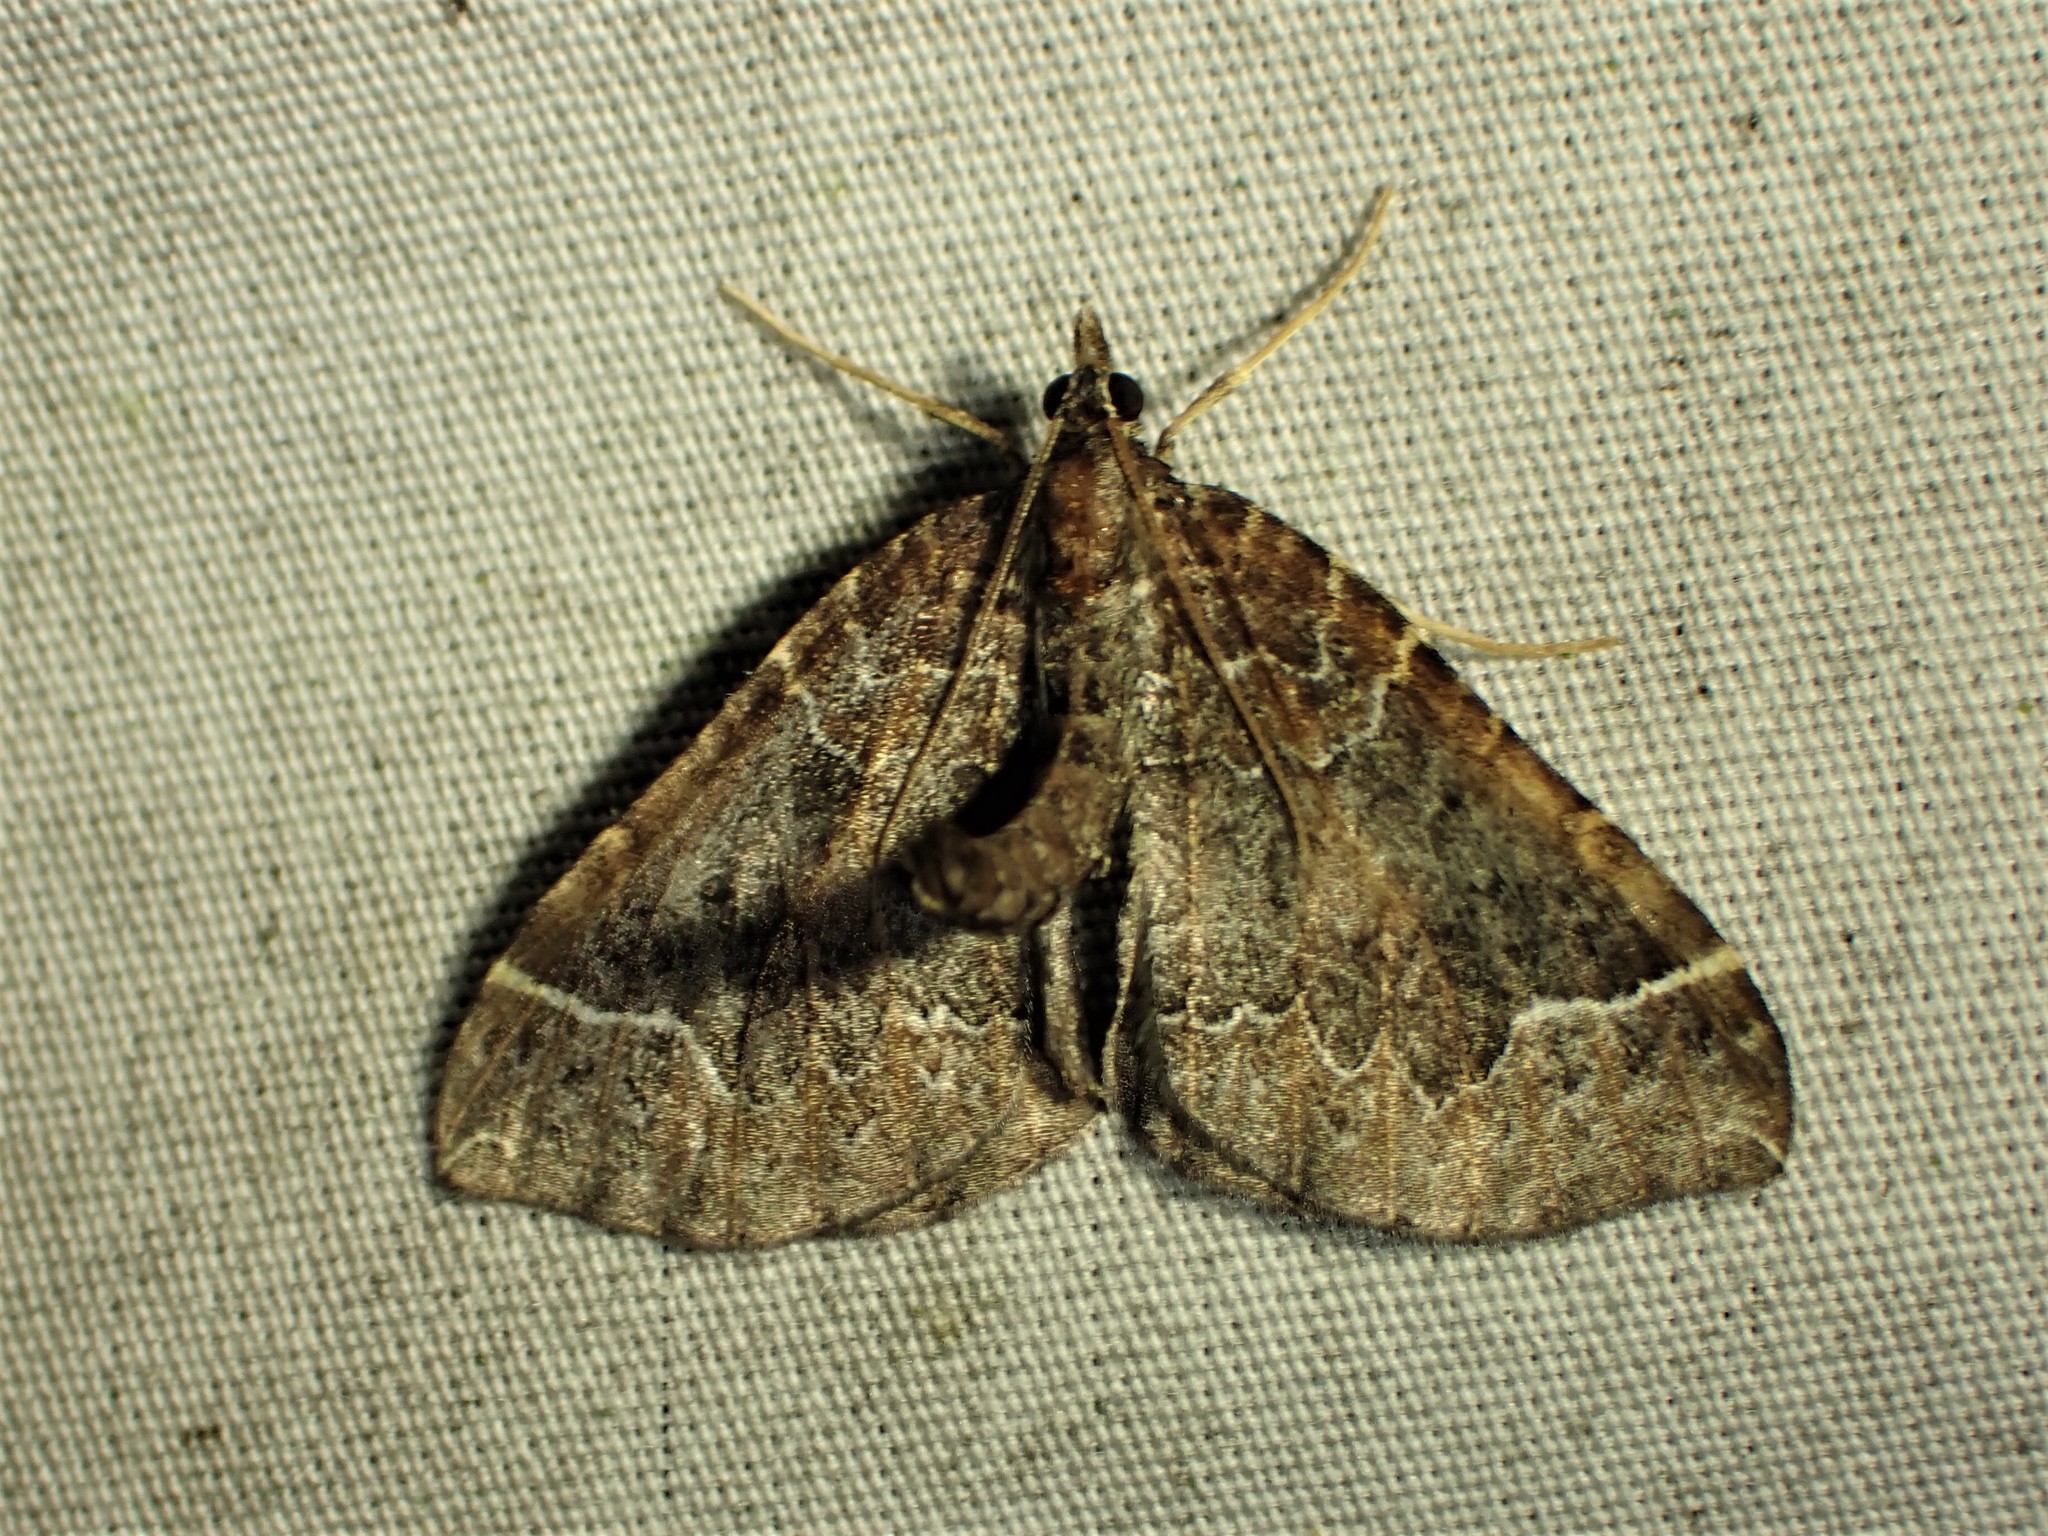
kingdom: Animalia
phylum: Arthropoda
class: Insecta
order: Lepidoptera
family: Geometridae
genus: Eulithis
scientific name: Eulithis flavibrunneata
